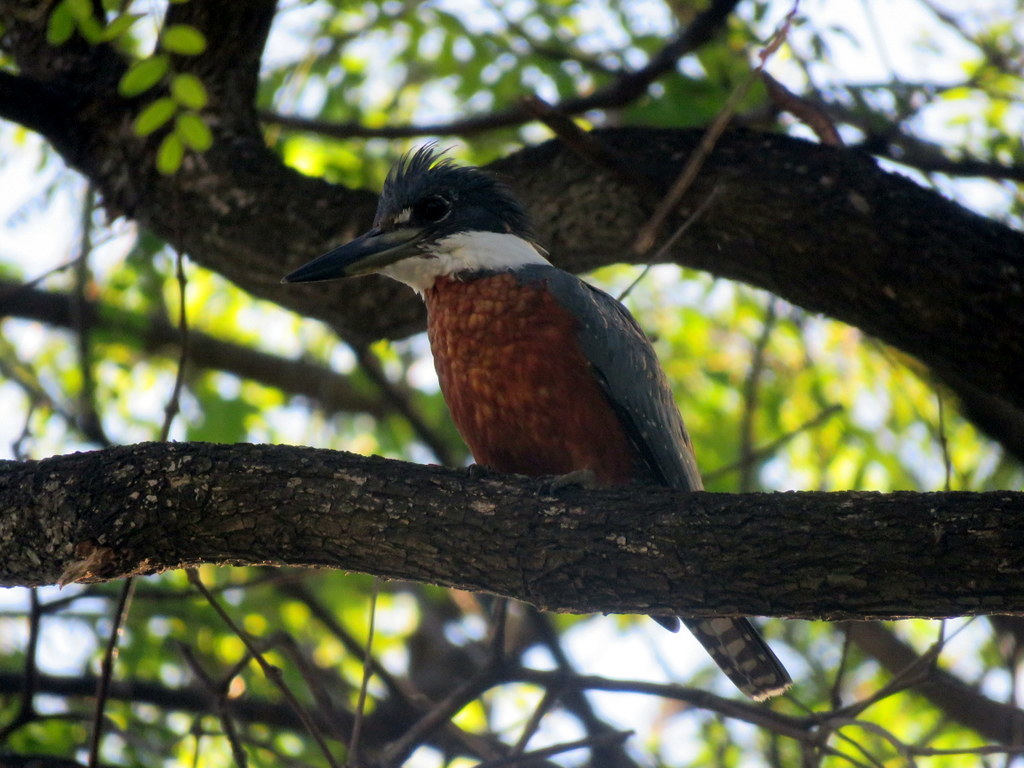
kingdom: Animalia
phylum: Chordata
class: Aves
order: Coraciiformes
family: Alcedinidae
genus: Megaceryle
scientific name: Megaceryle torquata
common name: Ringed kingfisher
